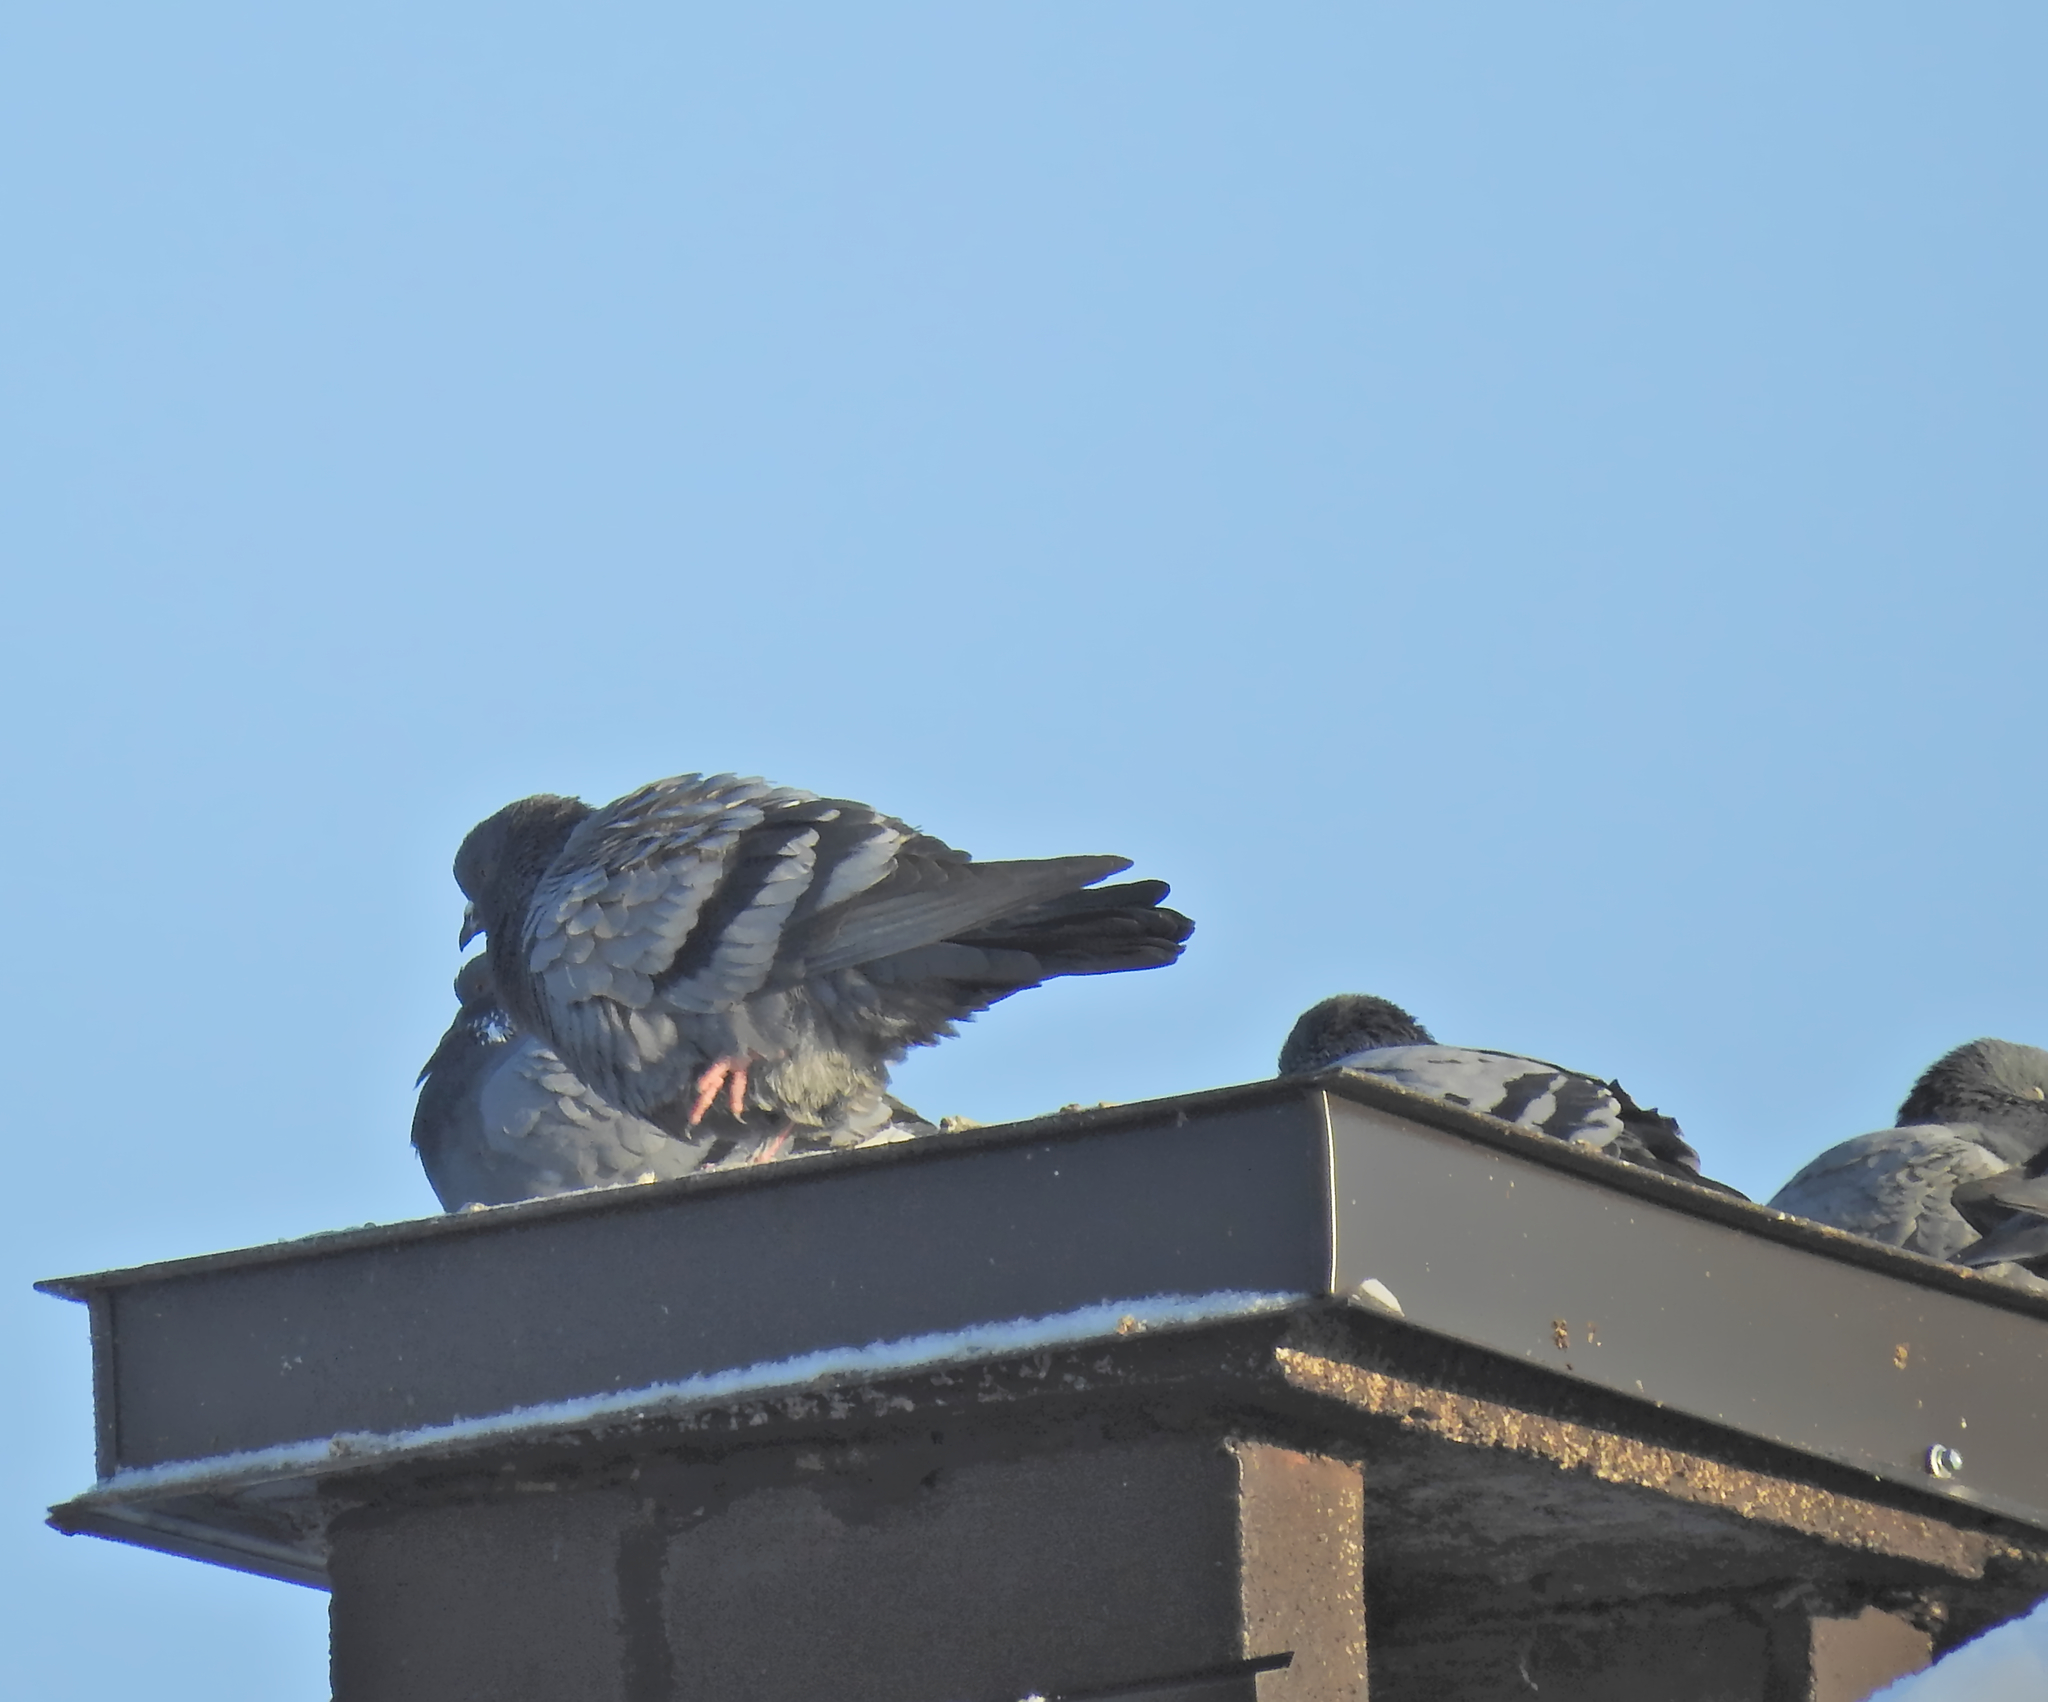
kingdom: Animalia
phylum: Chordata
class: Aves
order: Columbiformes
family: Columbidae
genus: Columba
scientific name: Columba livia
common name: Rock pigeon
